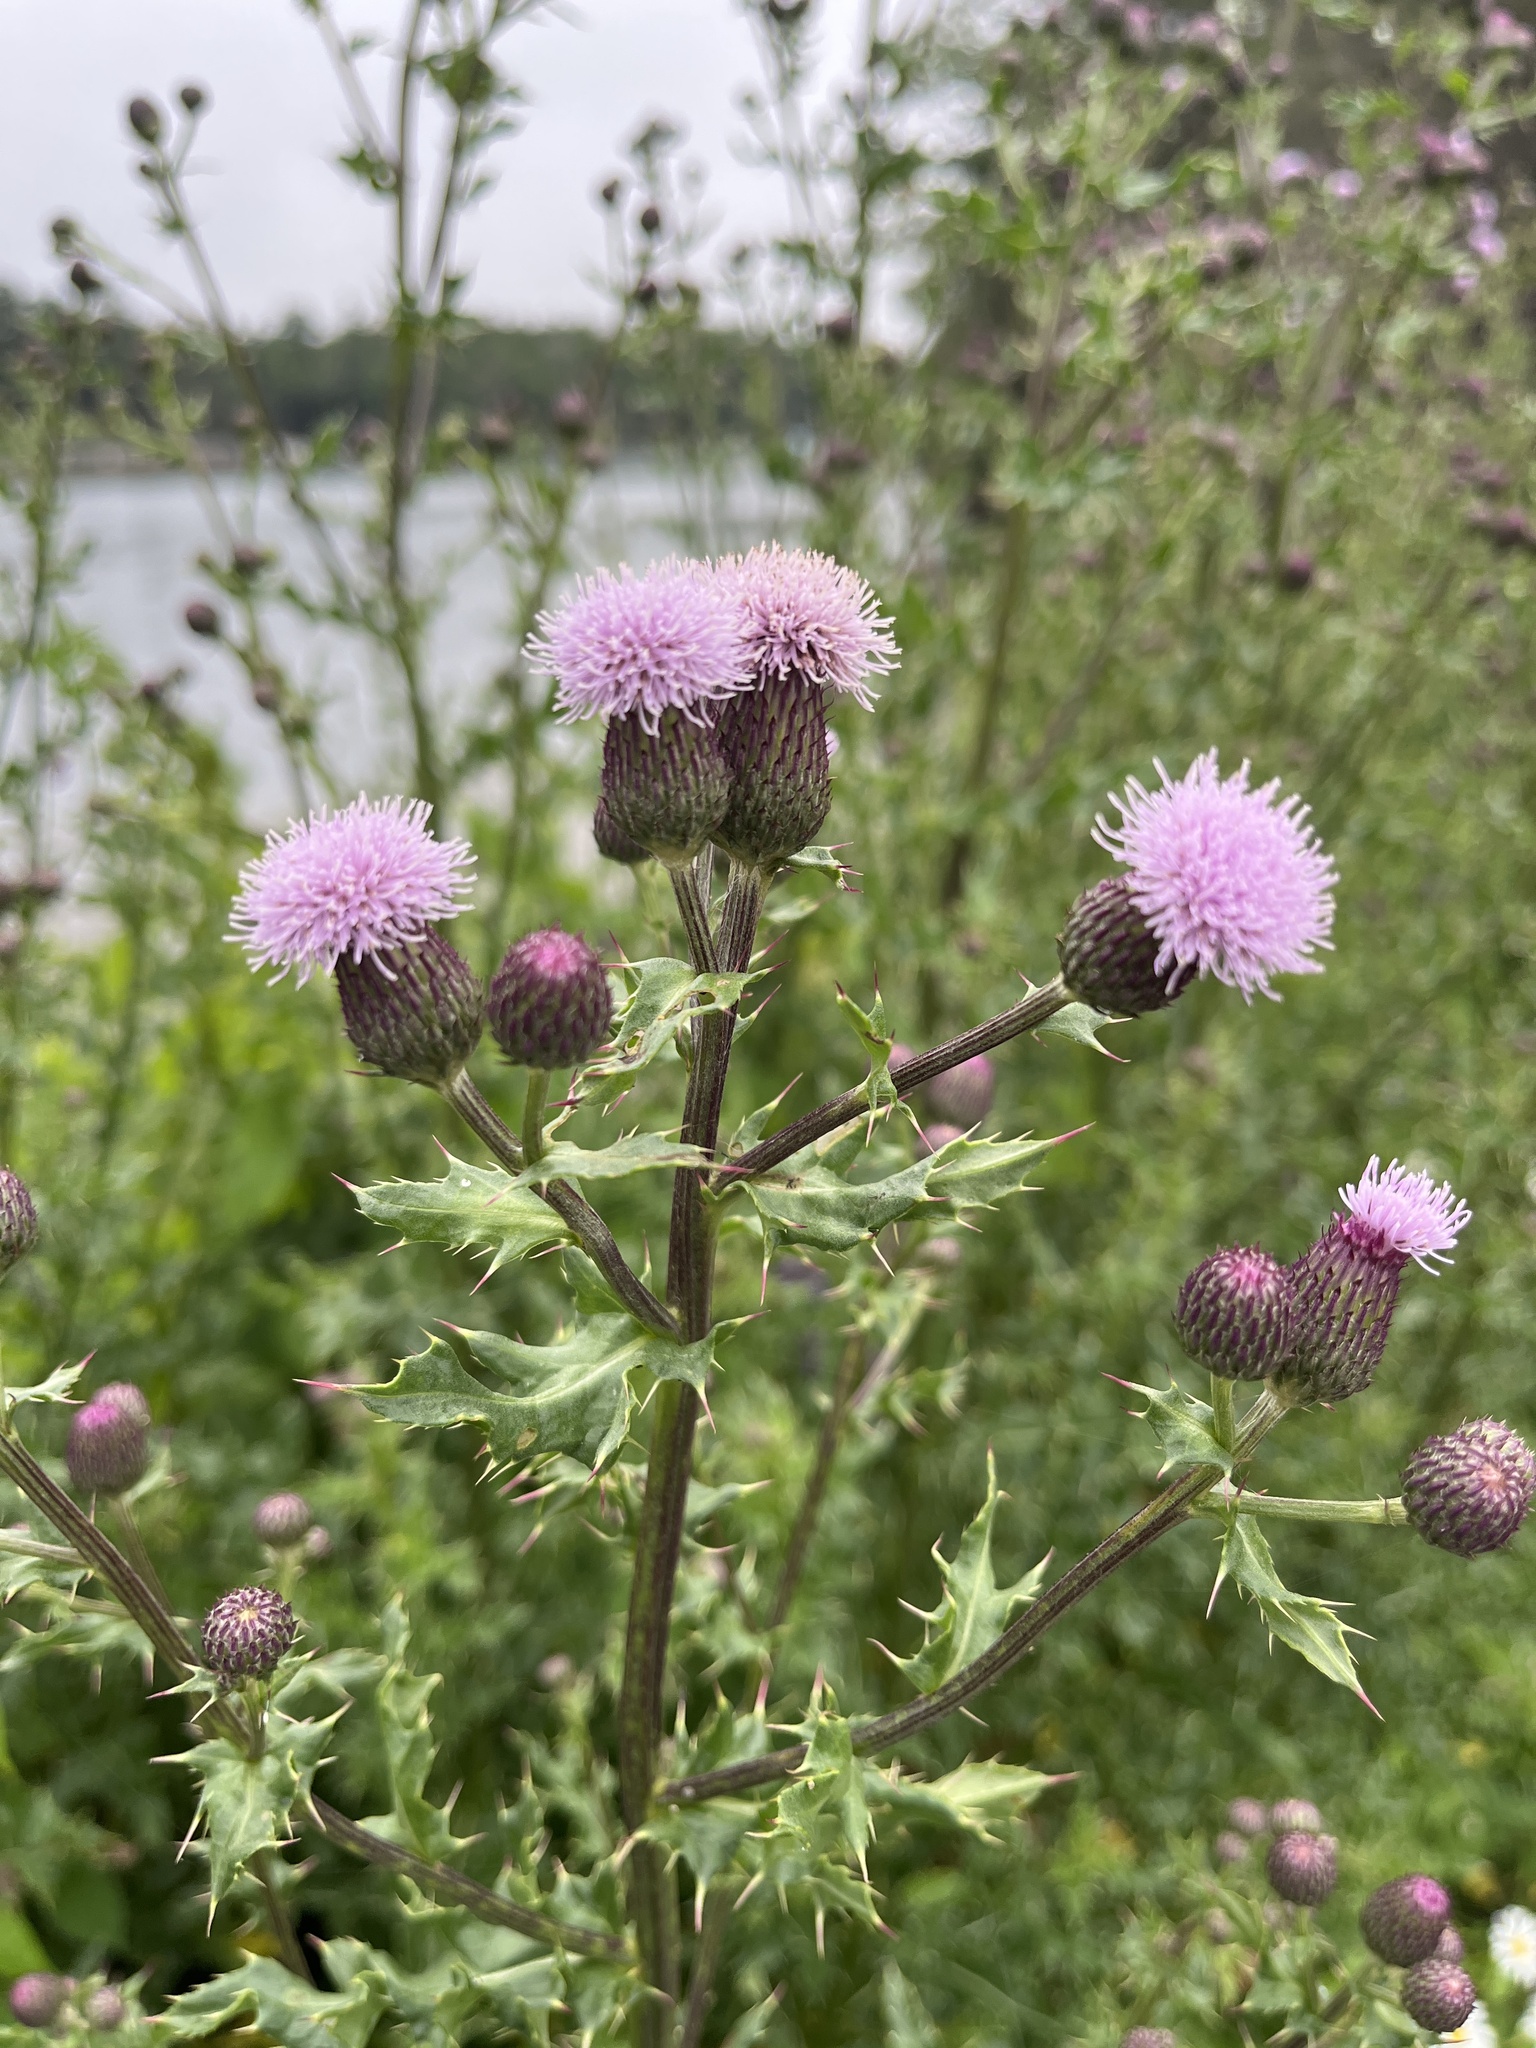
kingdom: Plantae
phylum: Tracheophyta
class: Magnoliopsida
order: Asterales
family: Asteraceae
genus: Cirsium
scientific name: Cirsium arvense
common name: Creeping thistle
